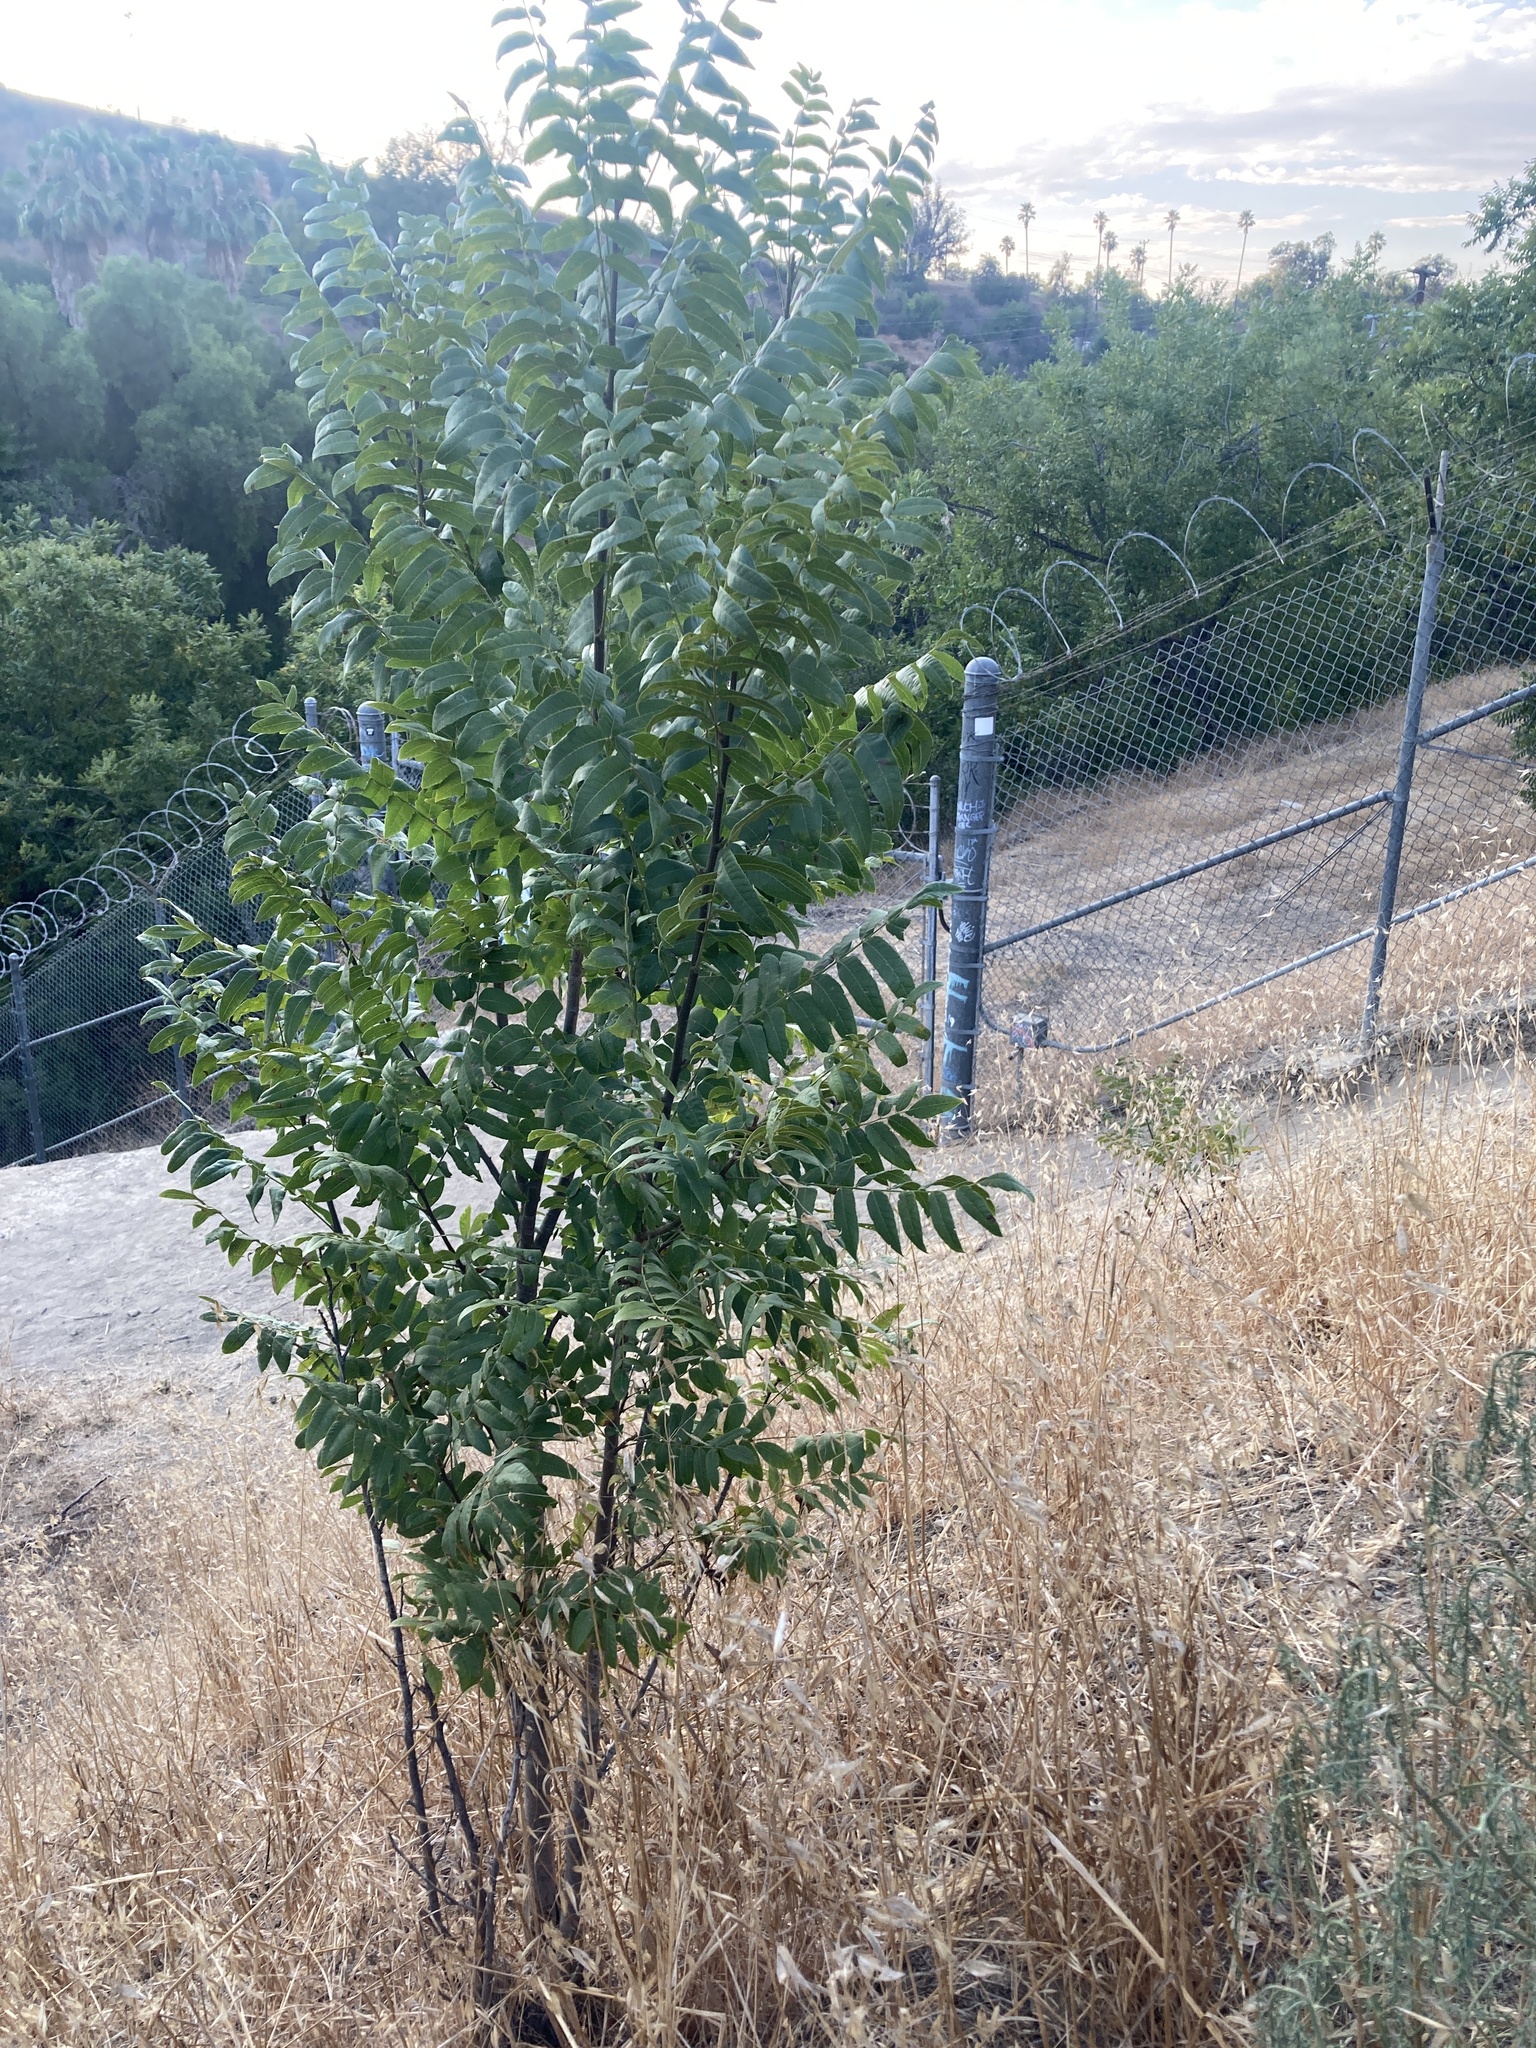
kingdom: Plantae
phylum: Tracheophyta
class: Magnoliopsida
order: Fagales
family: Juglandaceae
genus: Juglans
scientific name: Juglans californica
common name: Southern california black walnut
